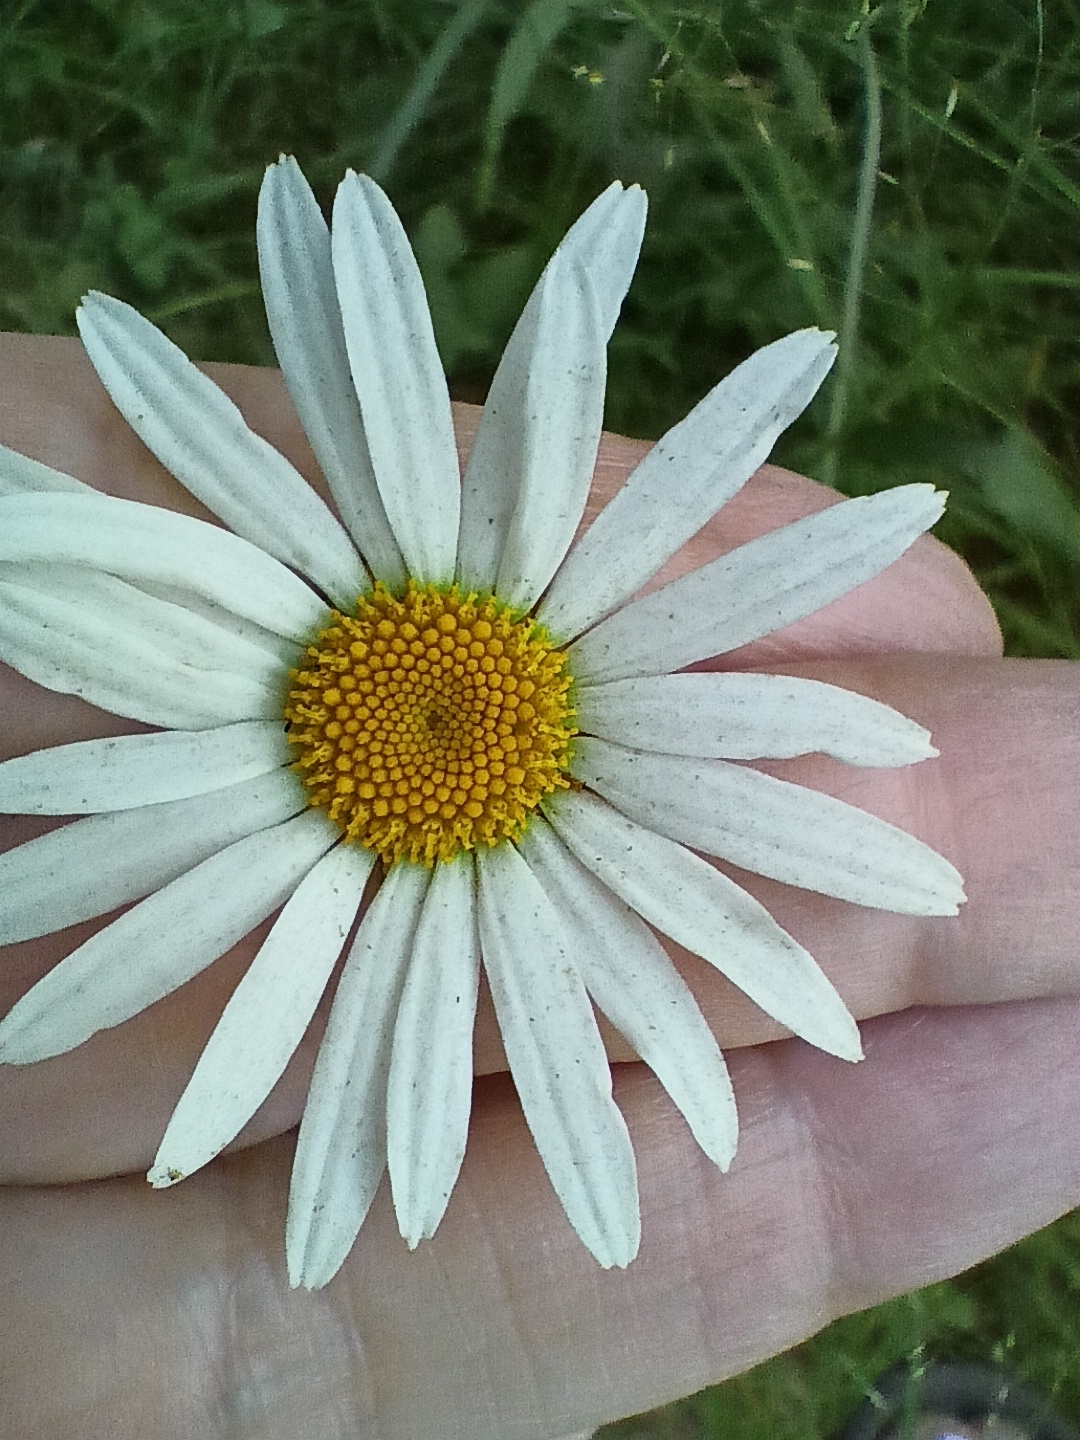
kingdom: Plantae
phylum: Tracheophyta
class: Magnoliopsida
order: Asterales
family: Asteraceae
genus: Leucanthemum
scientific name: Leucanthemum vulgare
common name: Oxeye daisy
